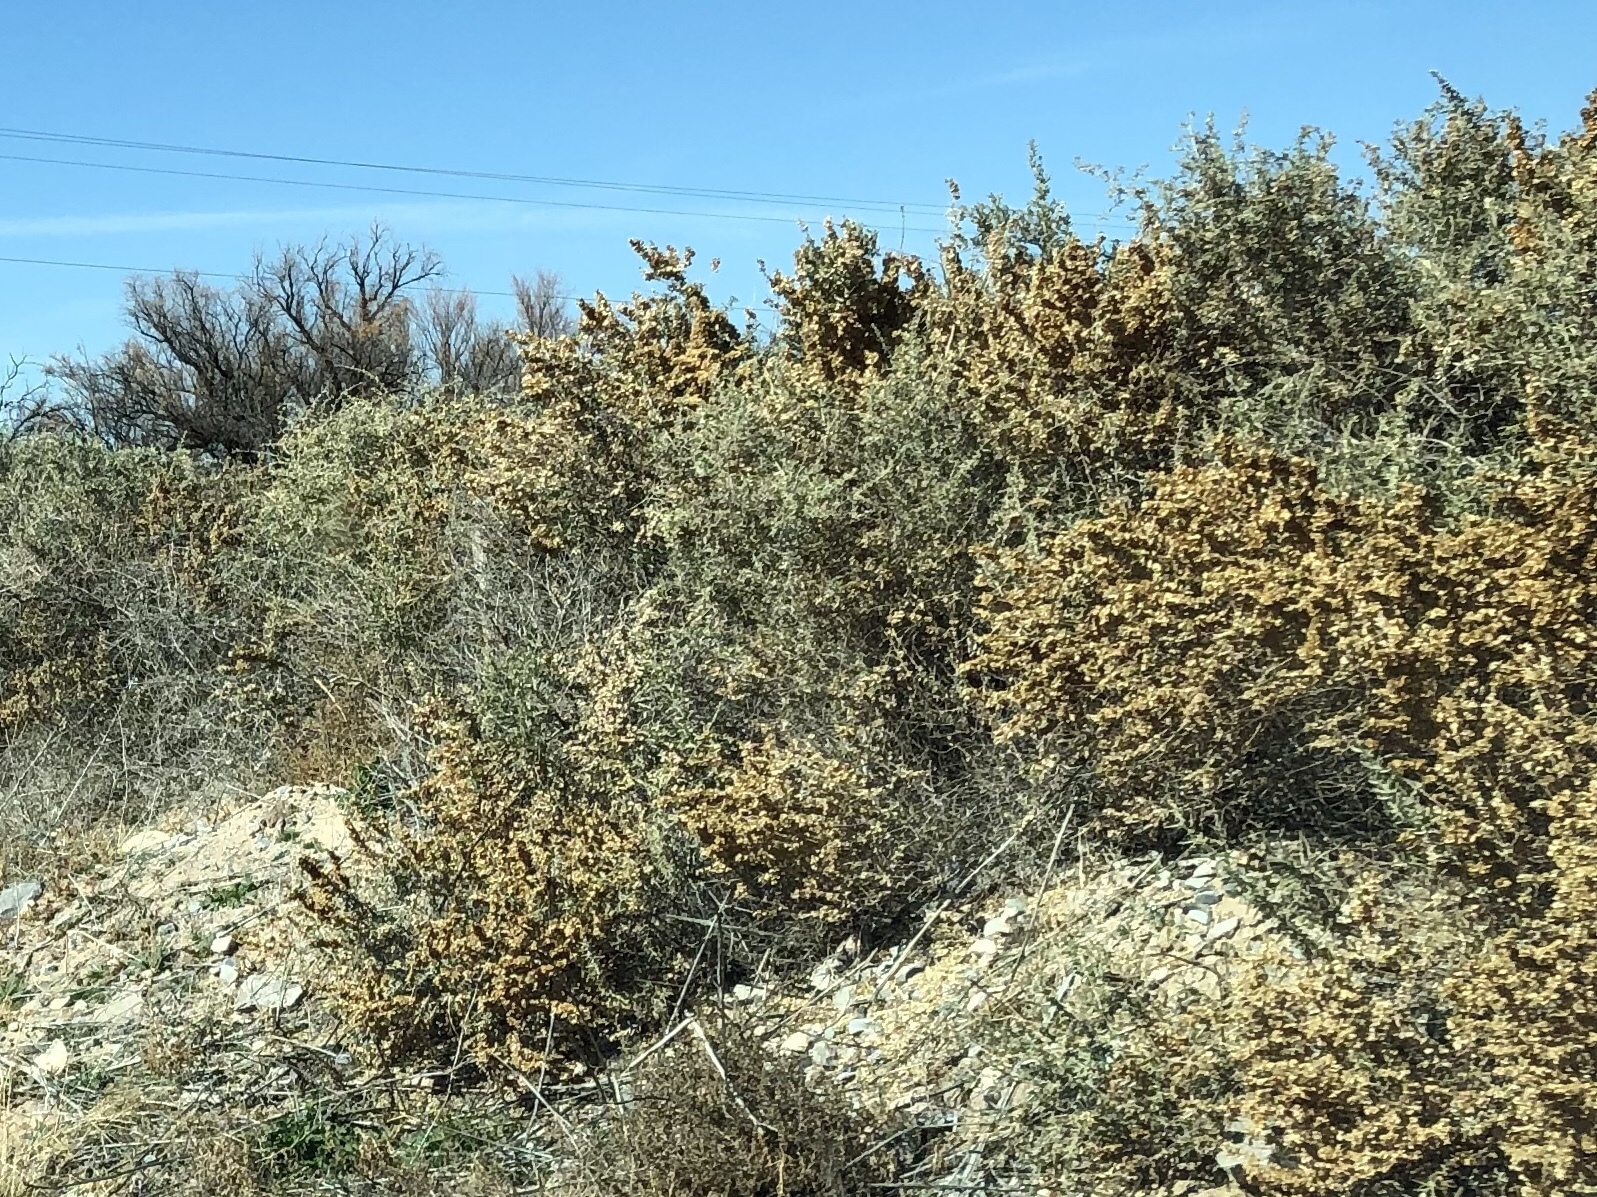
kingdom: Plantae
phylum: Tracheophyta
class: Magnoliopsida
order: Caryophyllales
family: Amaranthaceae
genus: Atriplex
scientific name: Atriplex canescens
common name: Four-wing saltbush
